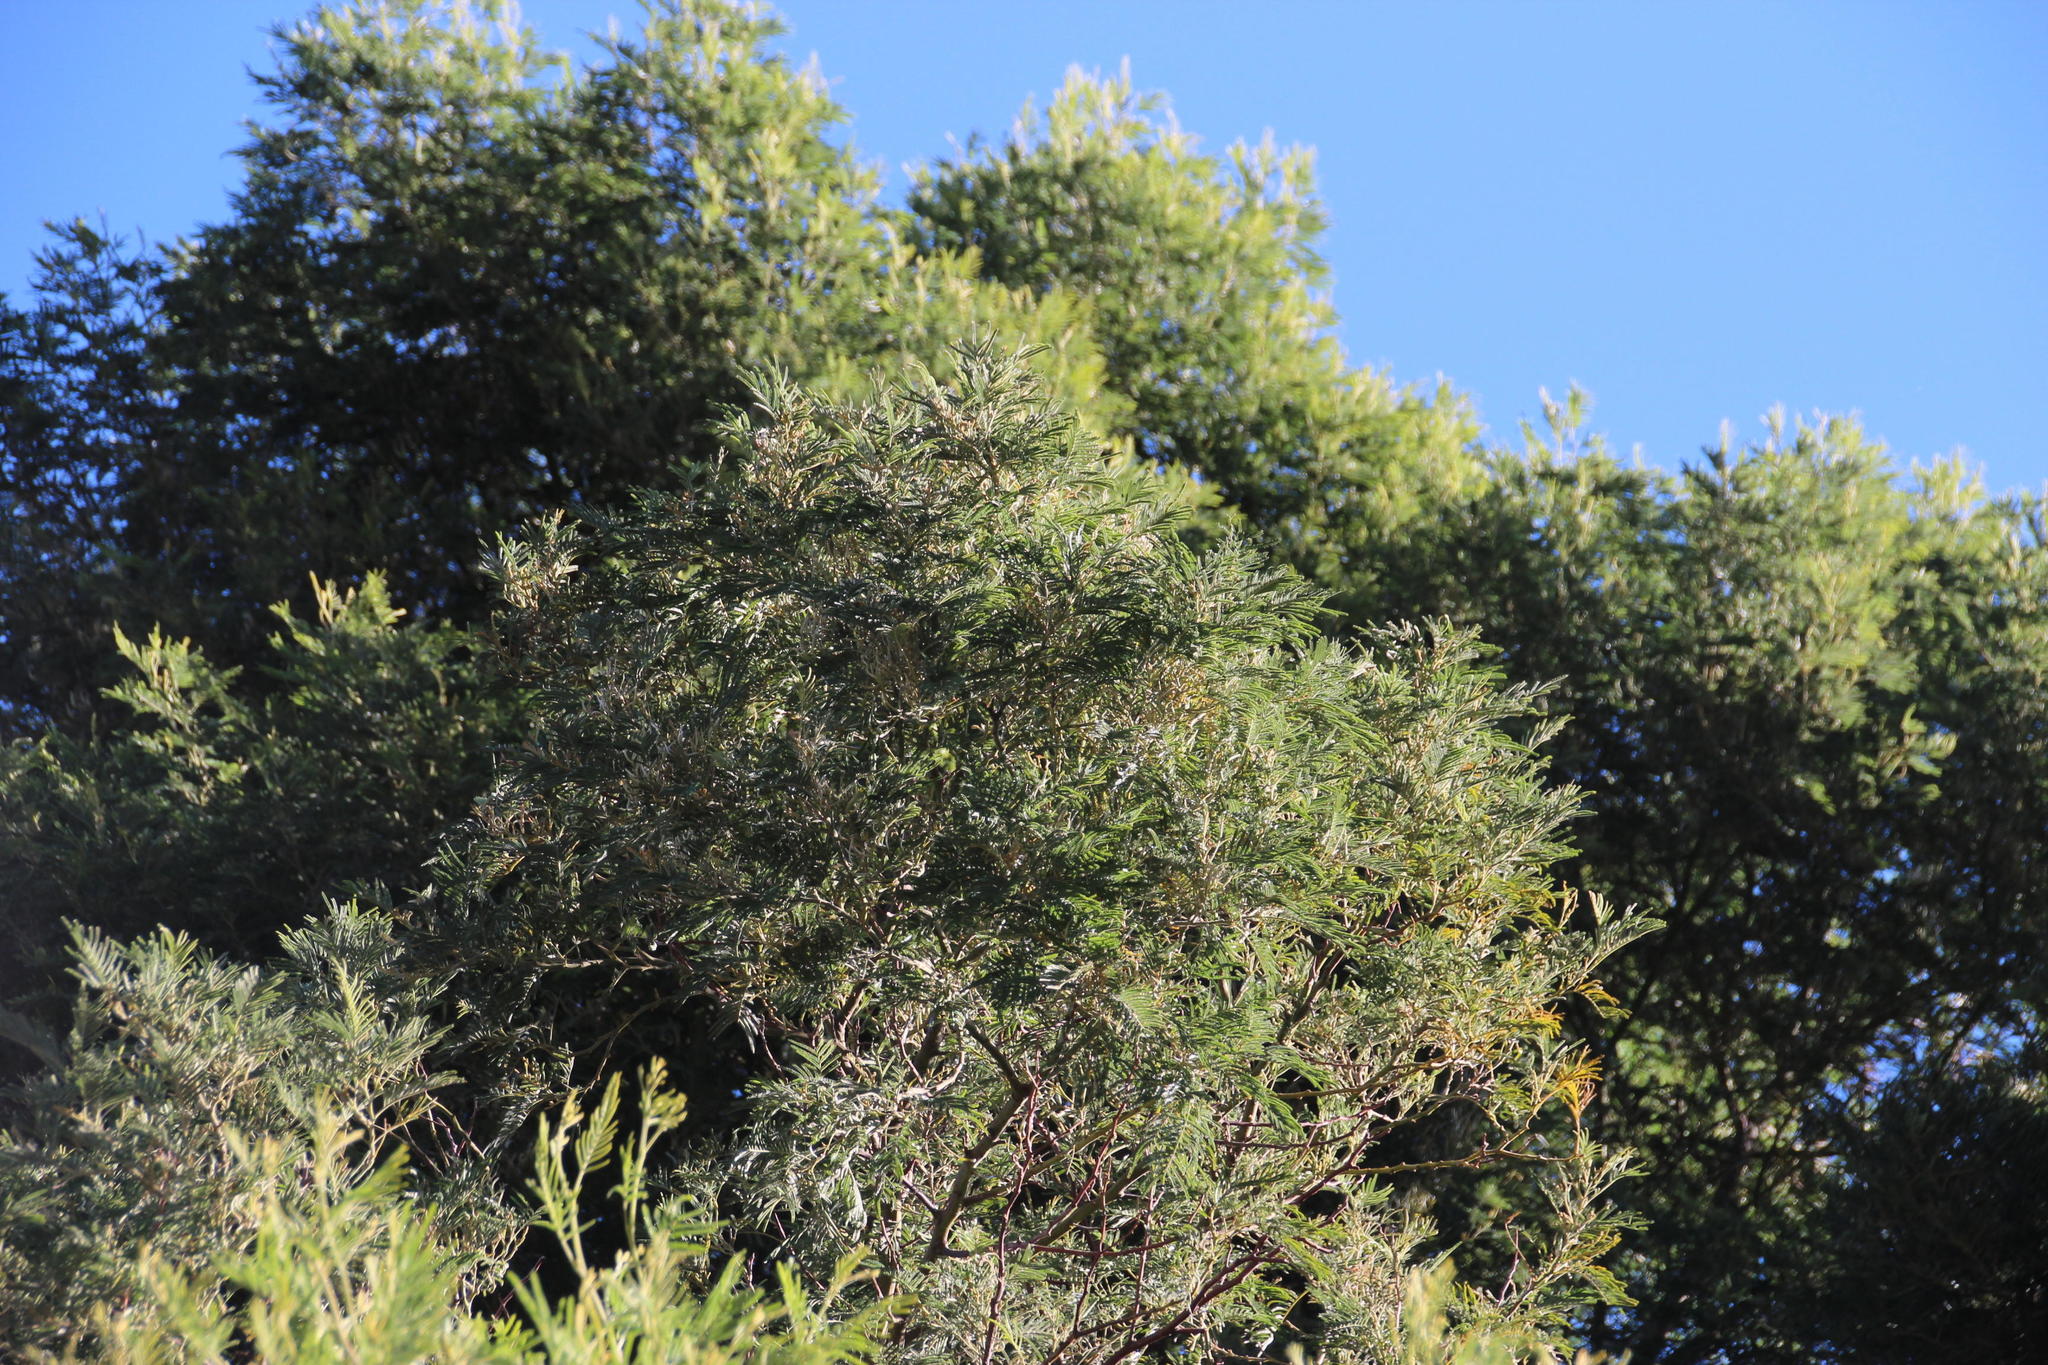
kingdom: Plantae
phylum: Tracheophyta
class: Magnoliopsida
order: Fabales
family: Fabaceae
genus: Acacia
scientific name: Acacia mearnsii
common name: Black wattle
